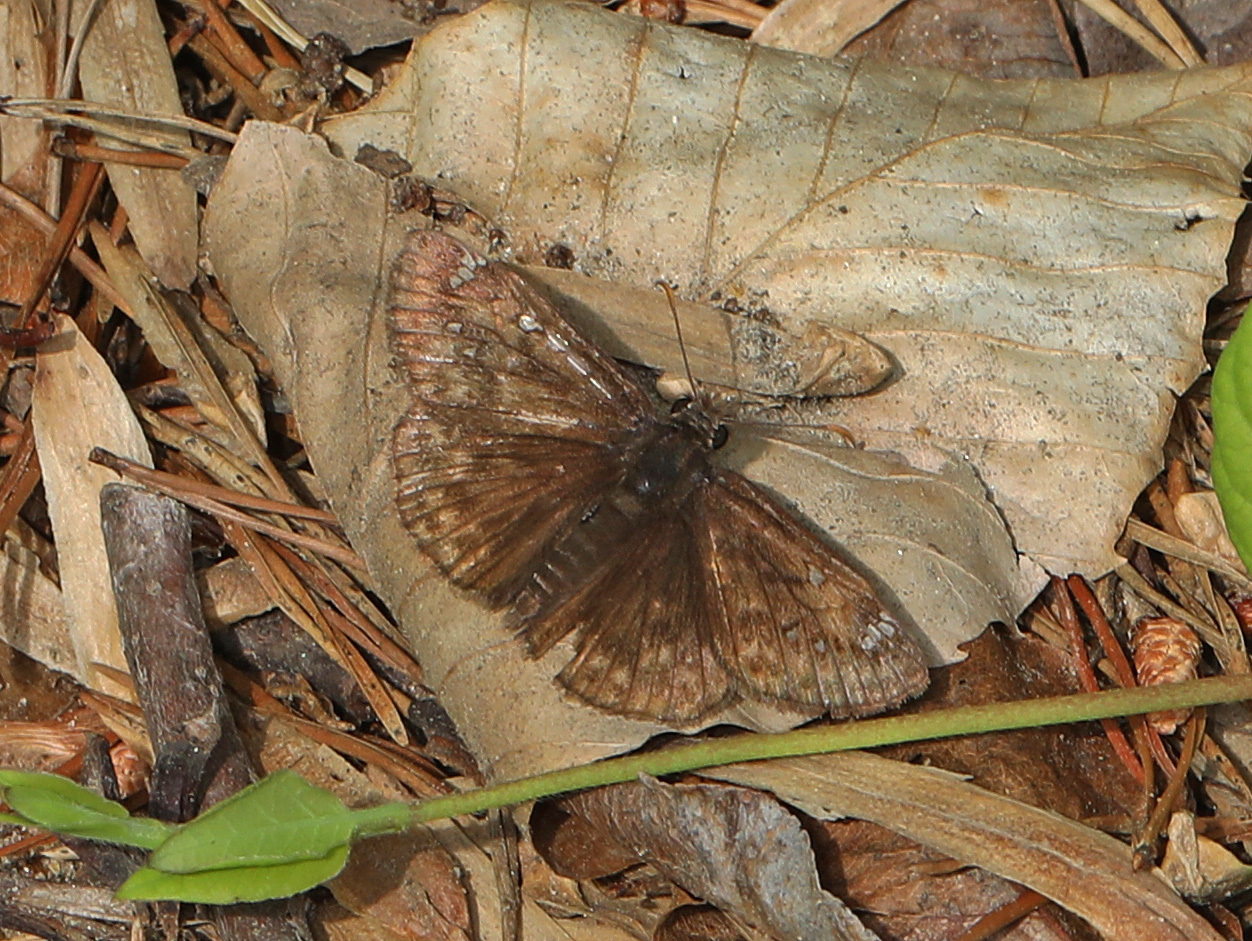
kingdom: Animalia
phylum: Arthropoda
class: Insecta
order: Lepidoptera
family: Hesperiidae
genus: Erynnis
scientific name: Erynnis juvenalis
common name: Juvenal's duskywing
